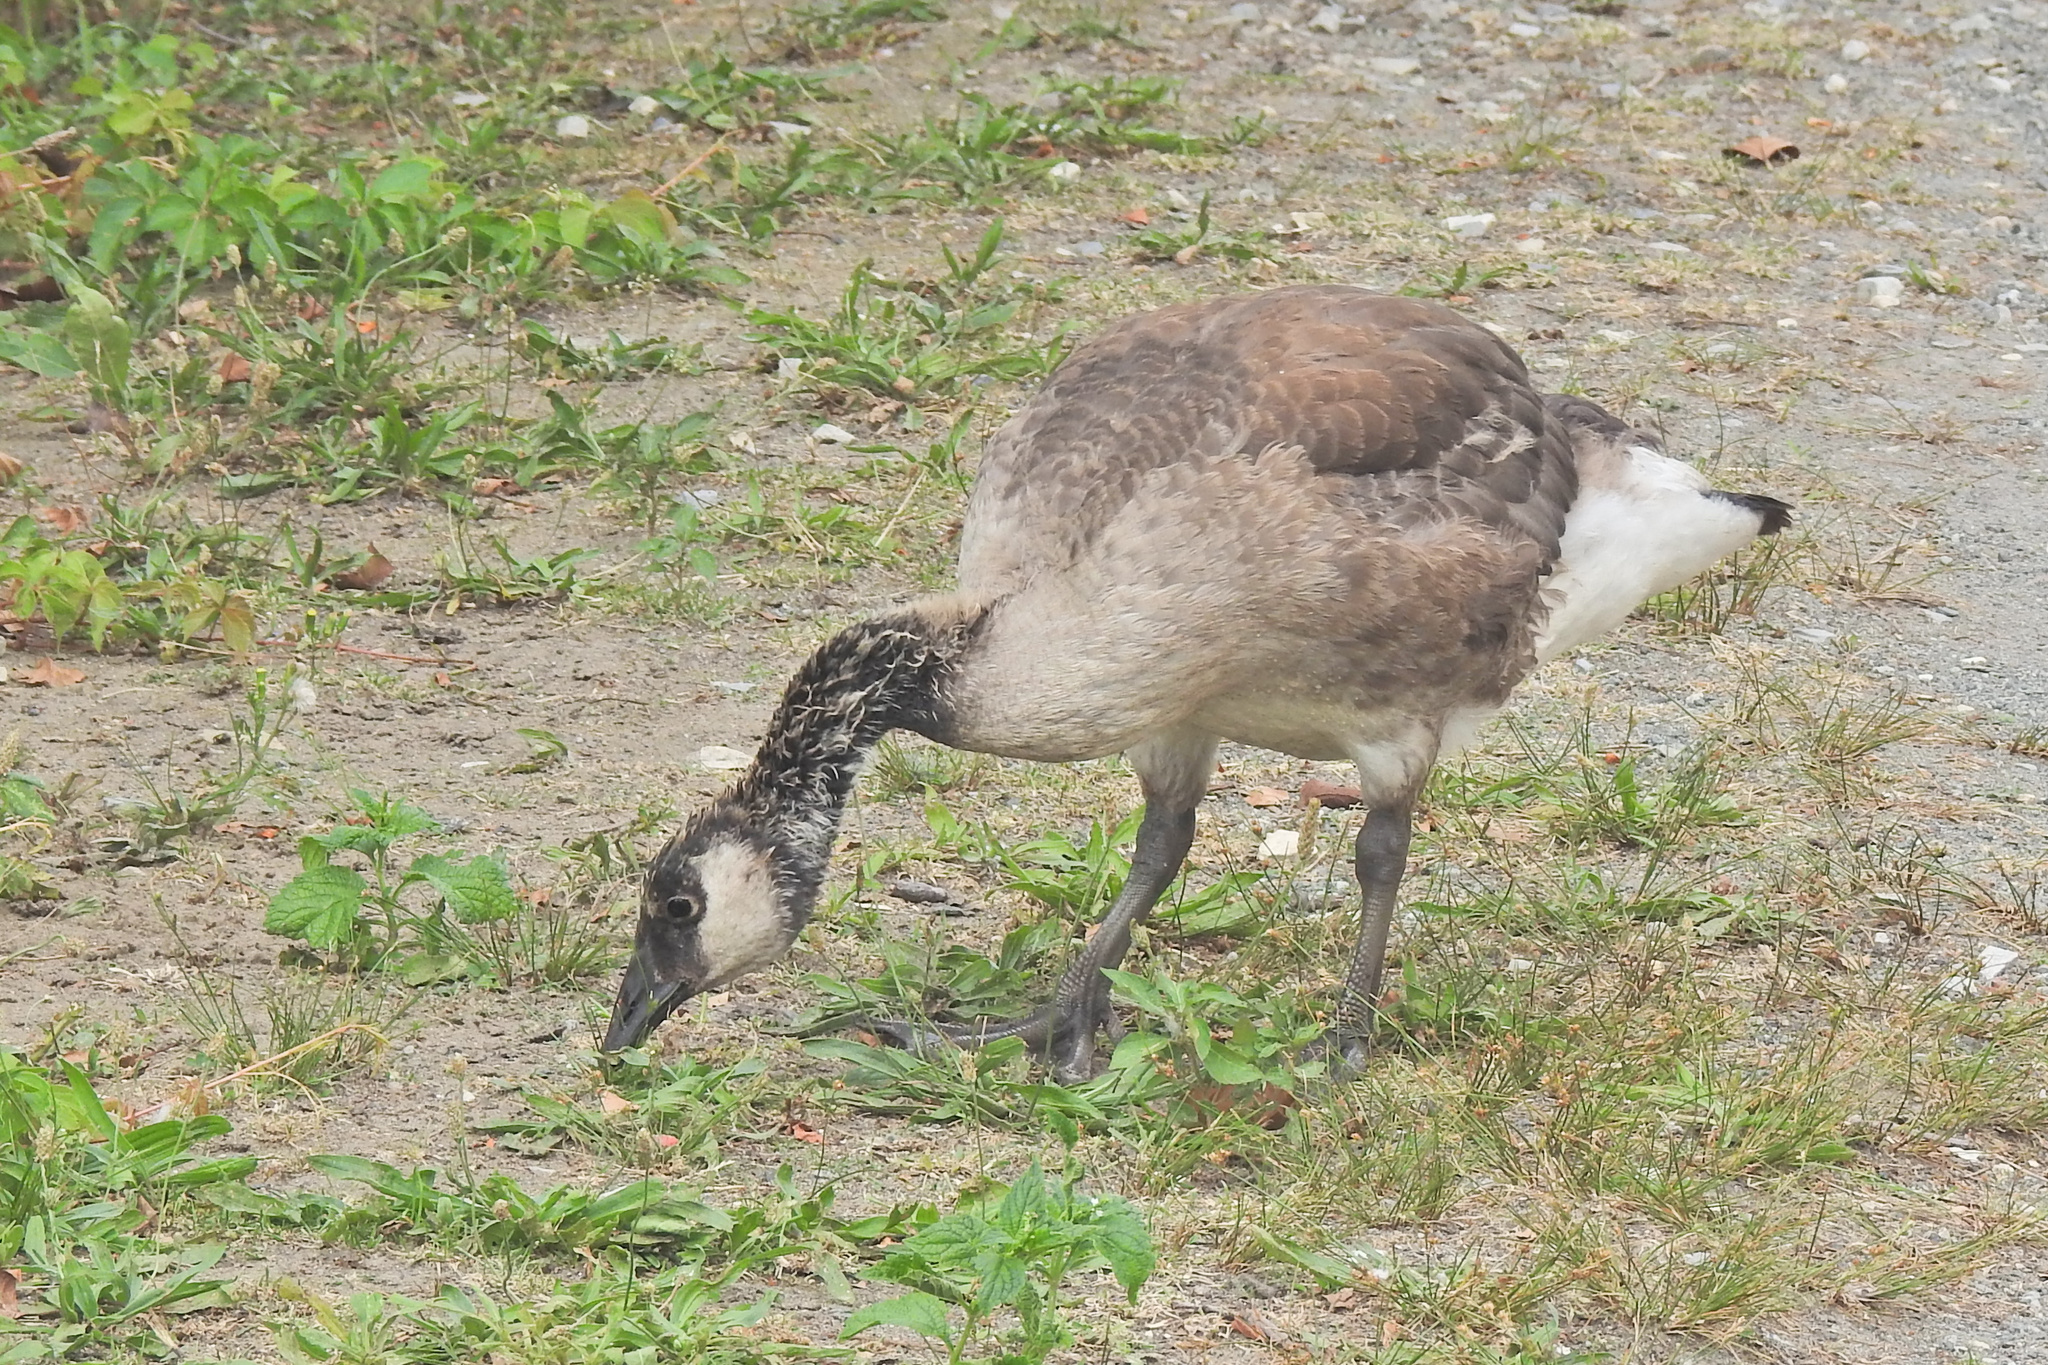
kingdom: Animalia
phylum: Chordata
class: Aves
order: Anseriformes
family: Anatidae
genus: Branta
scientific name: Branta canadensis
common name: Canada goose
